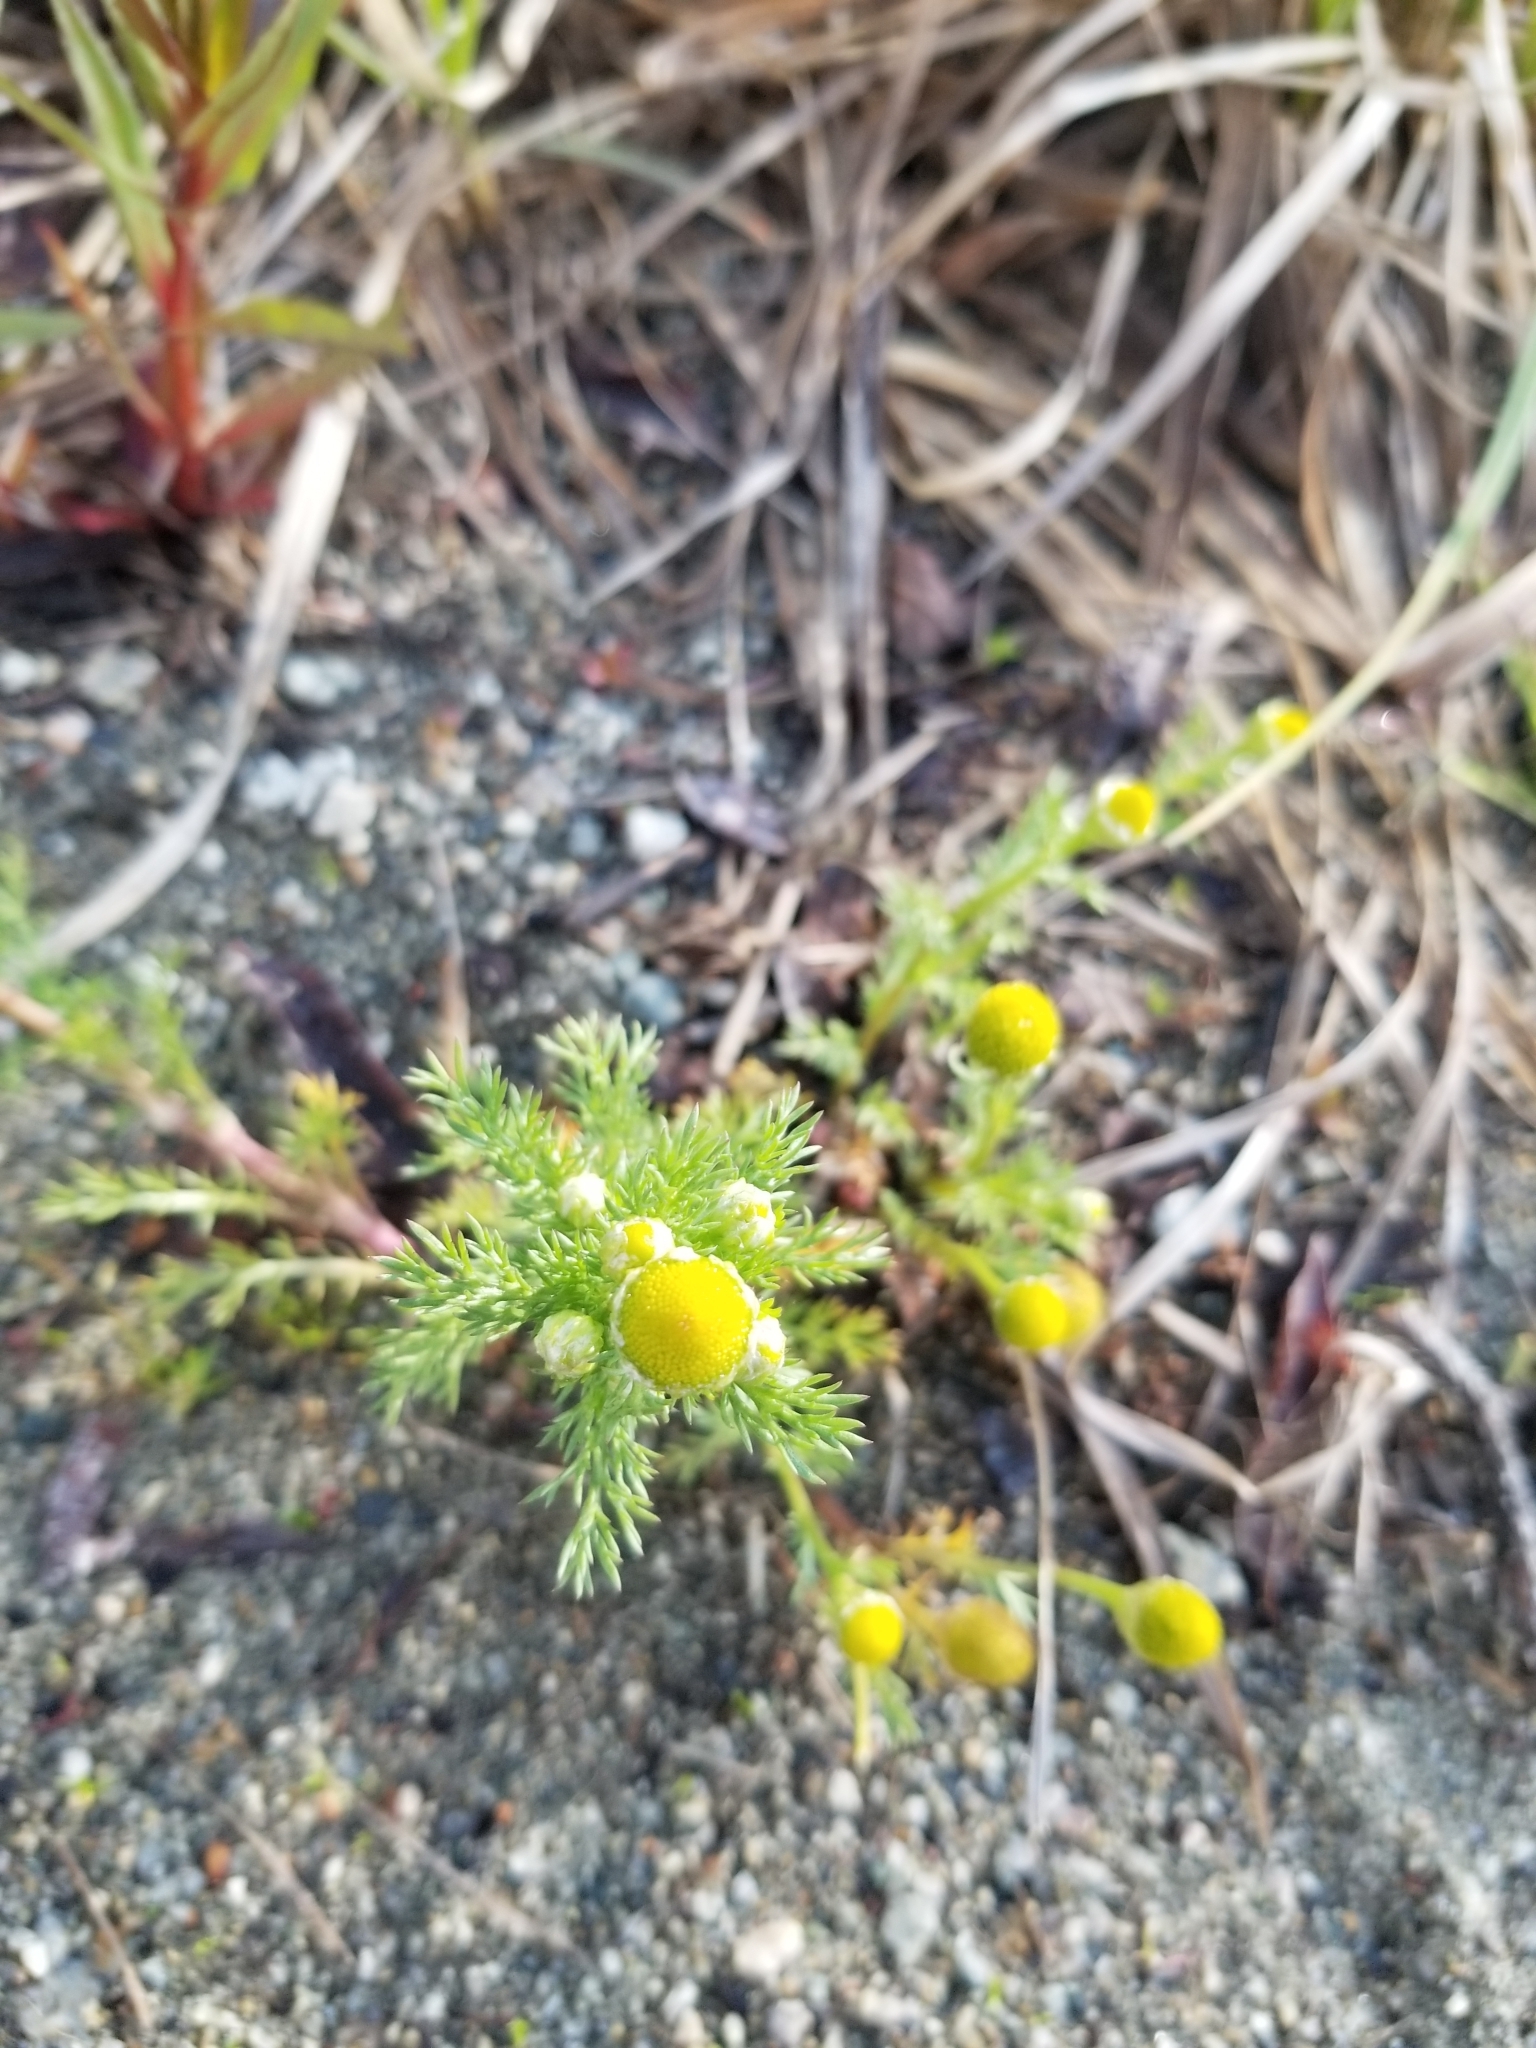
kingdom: Plantae
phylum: Tracheophyta
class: Magnoliopsida
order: Asterales
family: Asteraceae
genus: Matricaria
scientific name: Matricaria discoidea
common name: Disc mayweed
